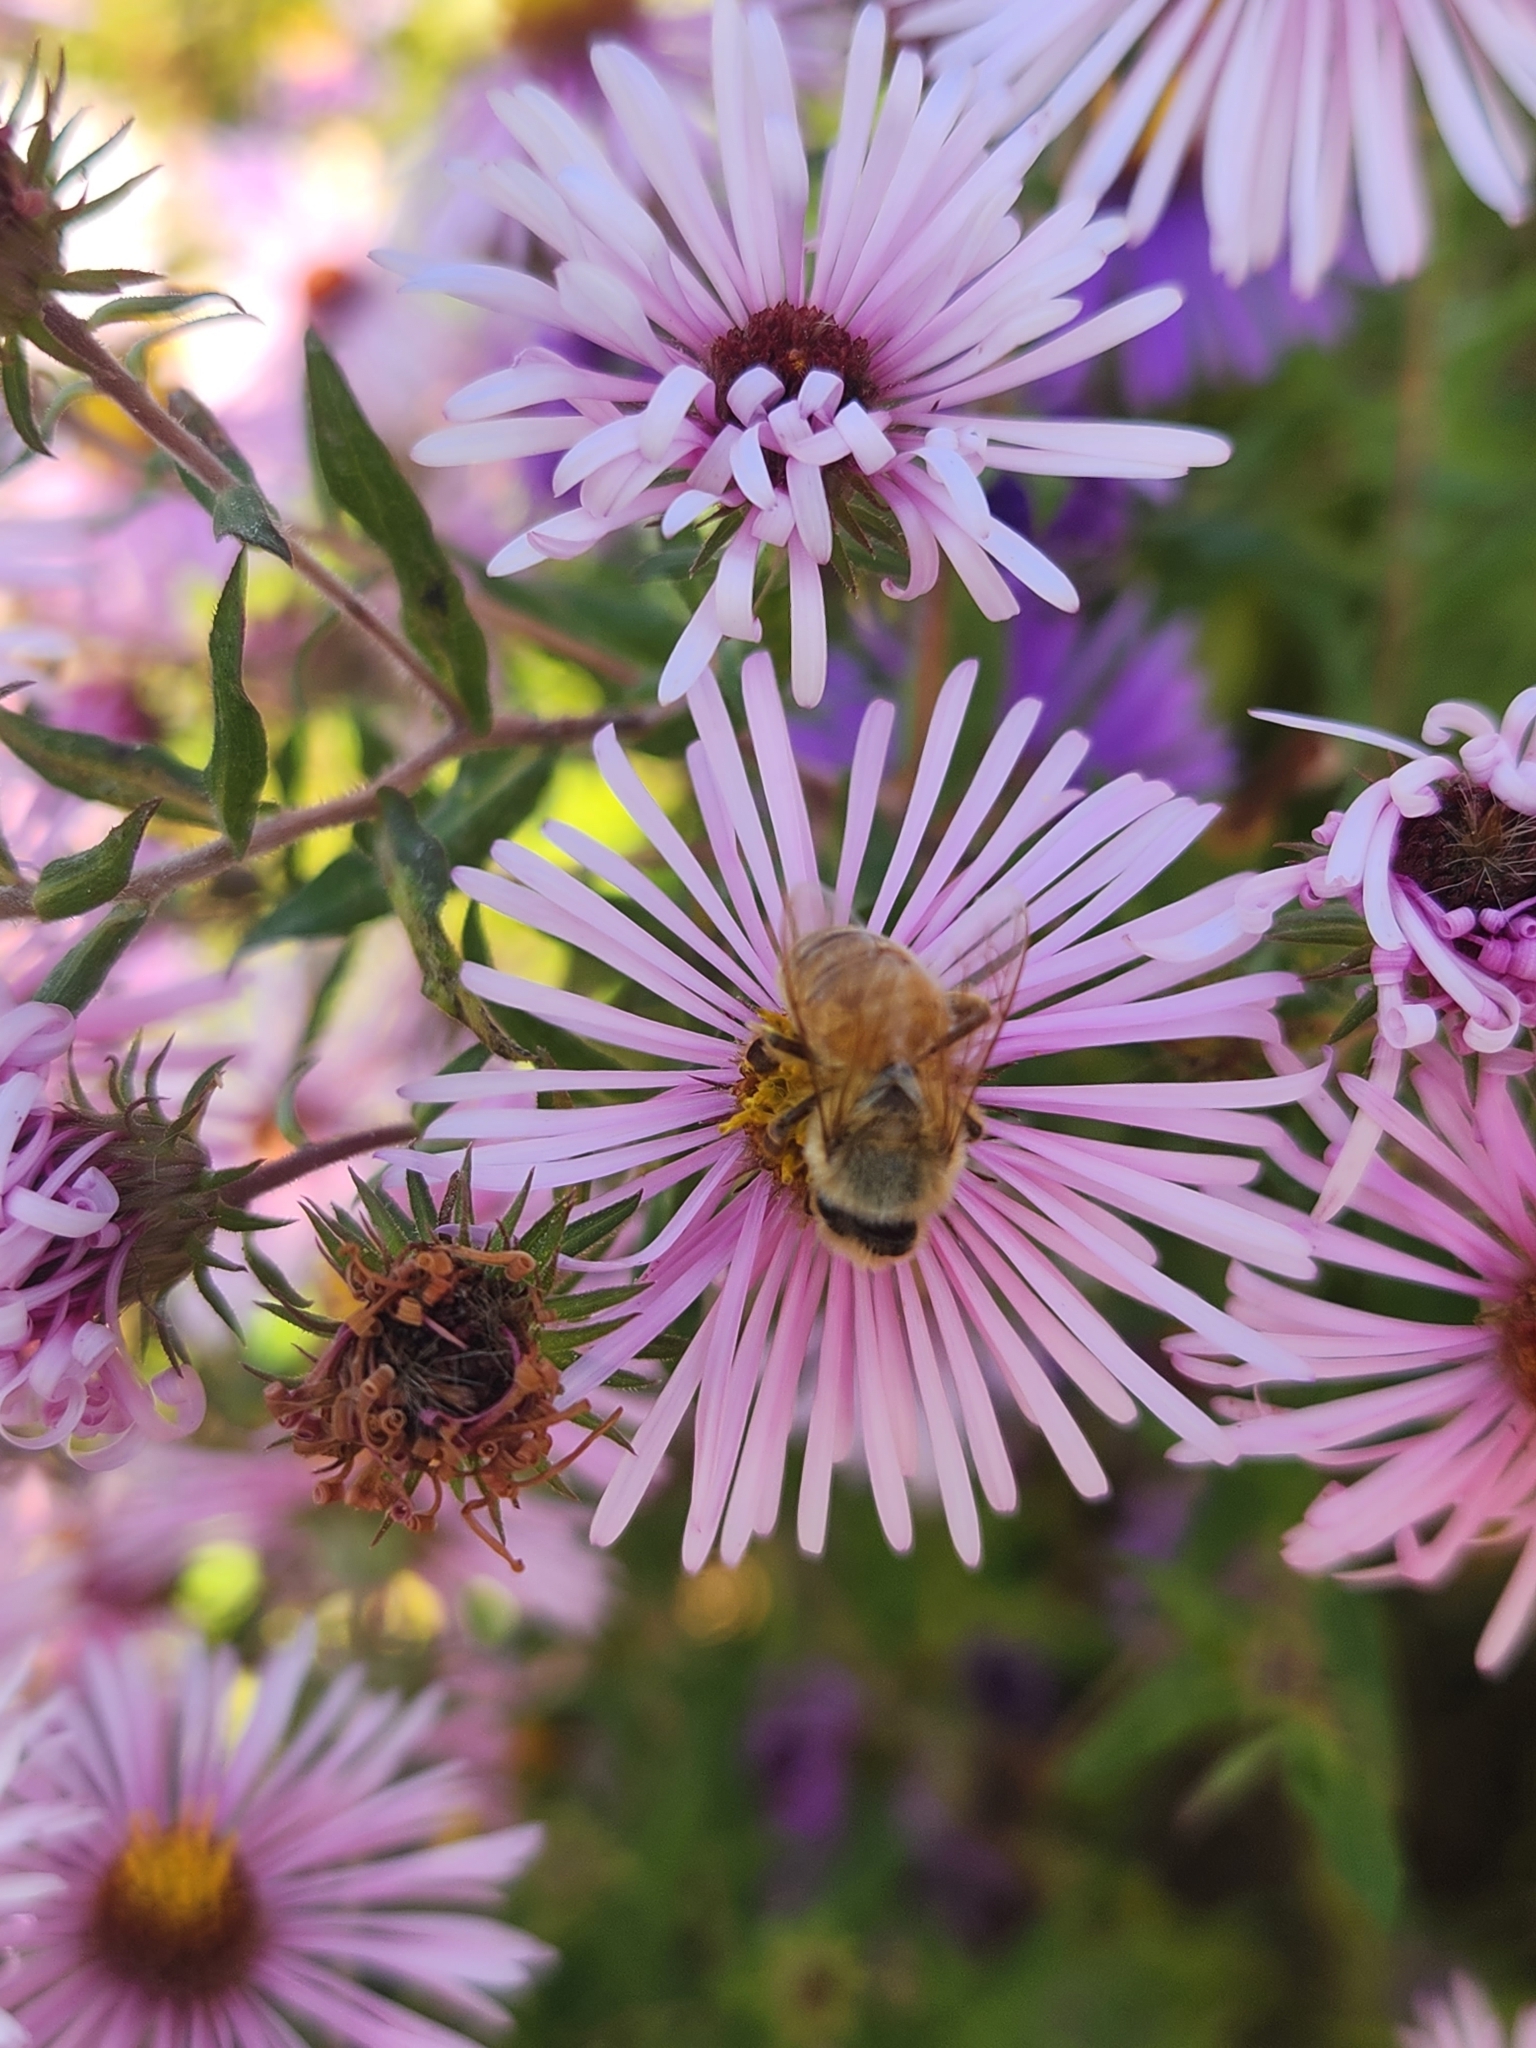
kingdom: Animalia
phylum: Arthropoda
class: Insecta
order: Hymenoptera
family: Apidae
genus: Apis
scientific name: Apis mellifera
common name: Honey bee
